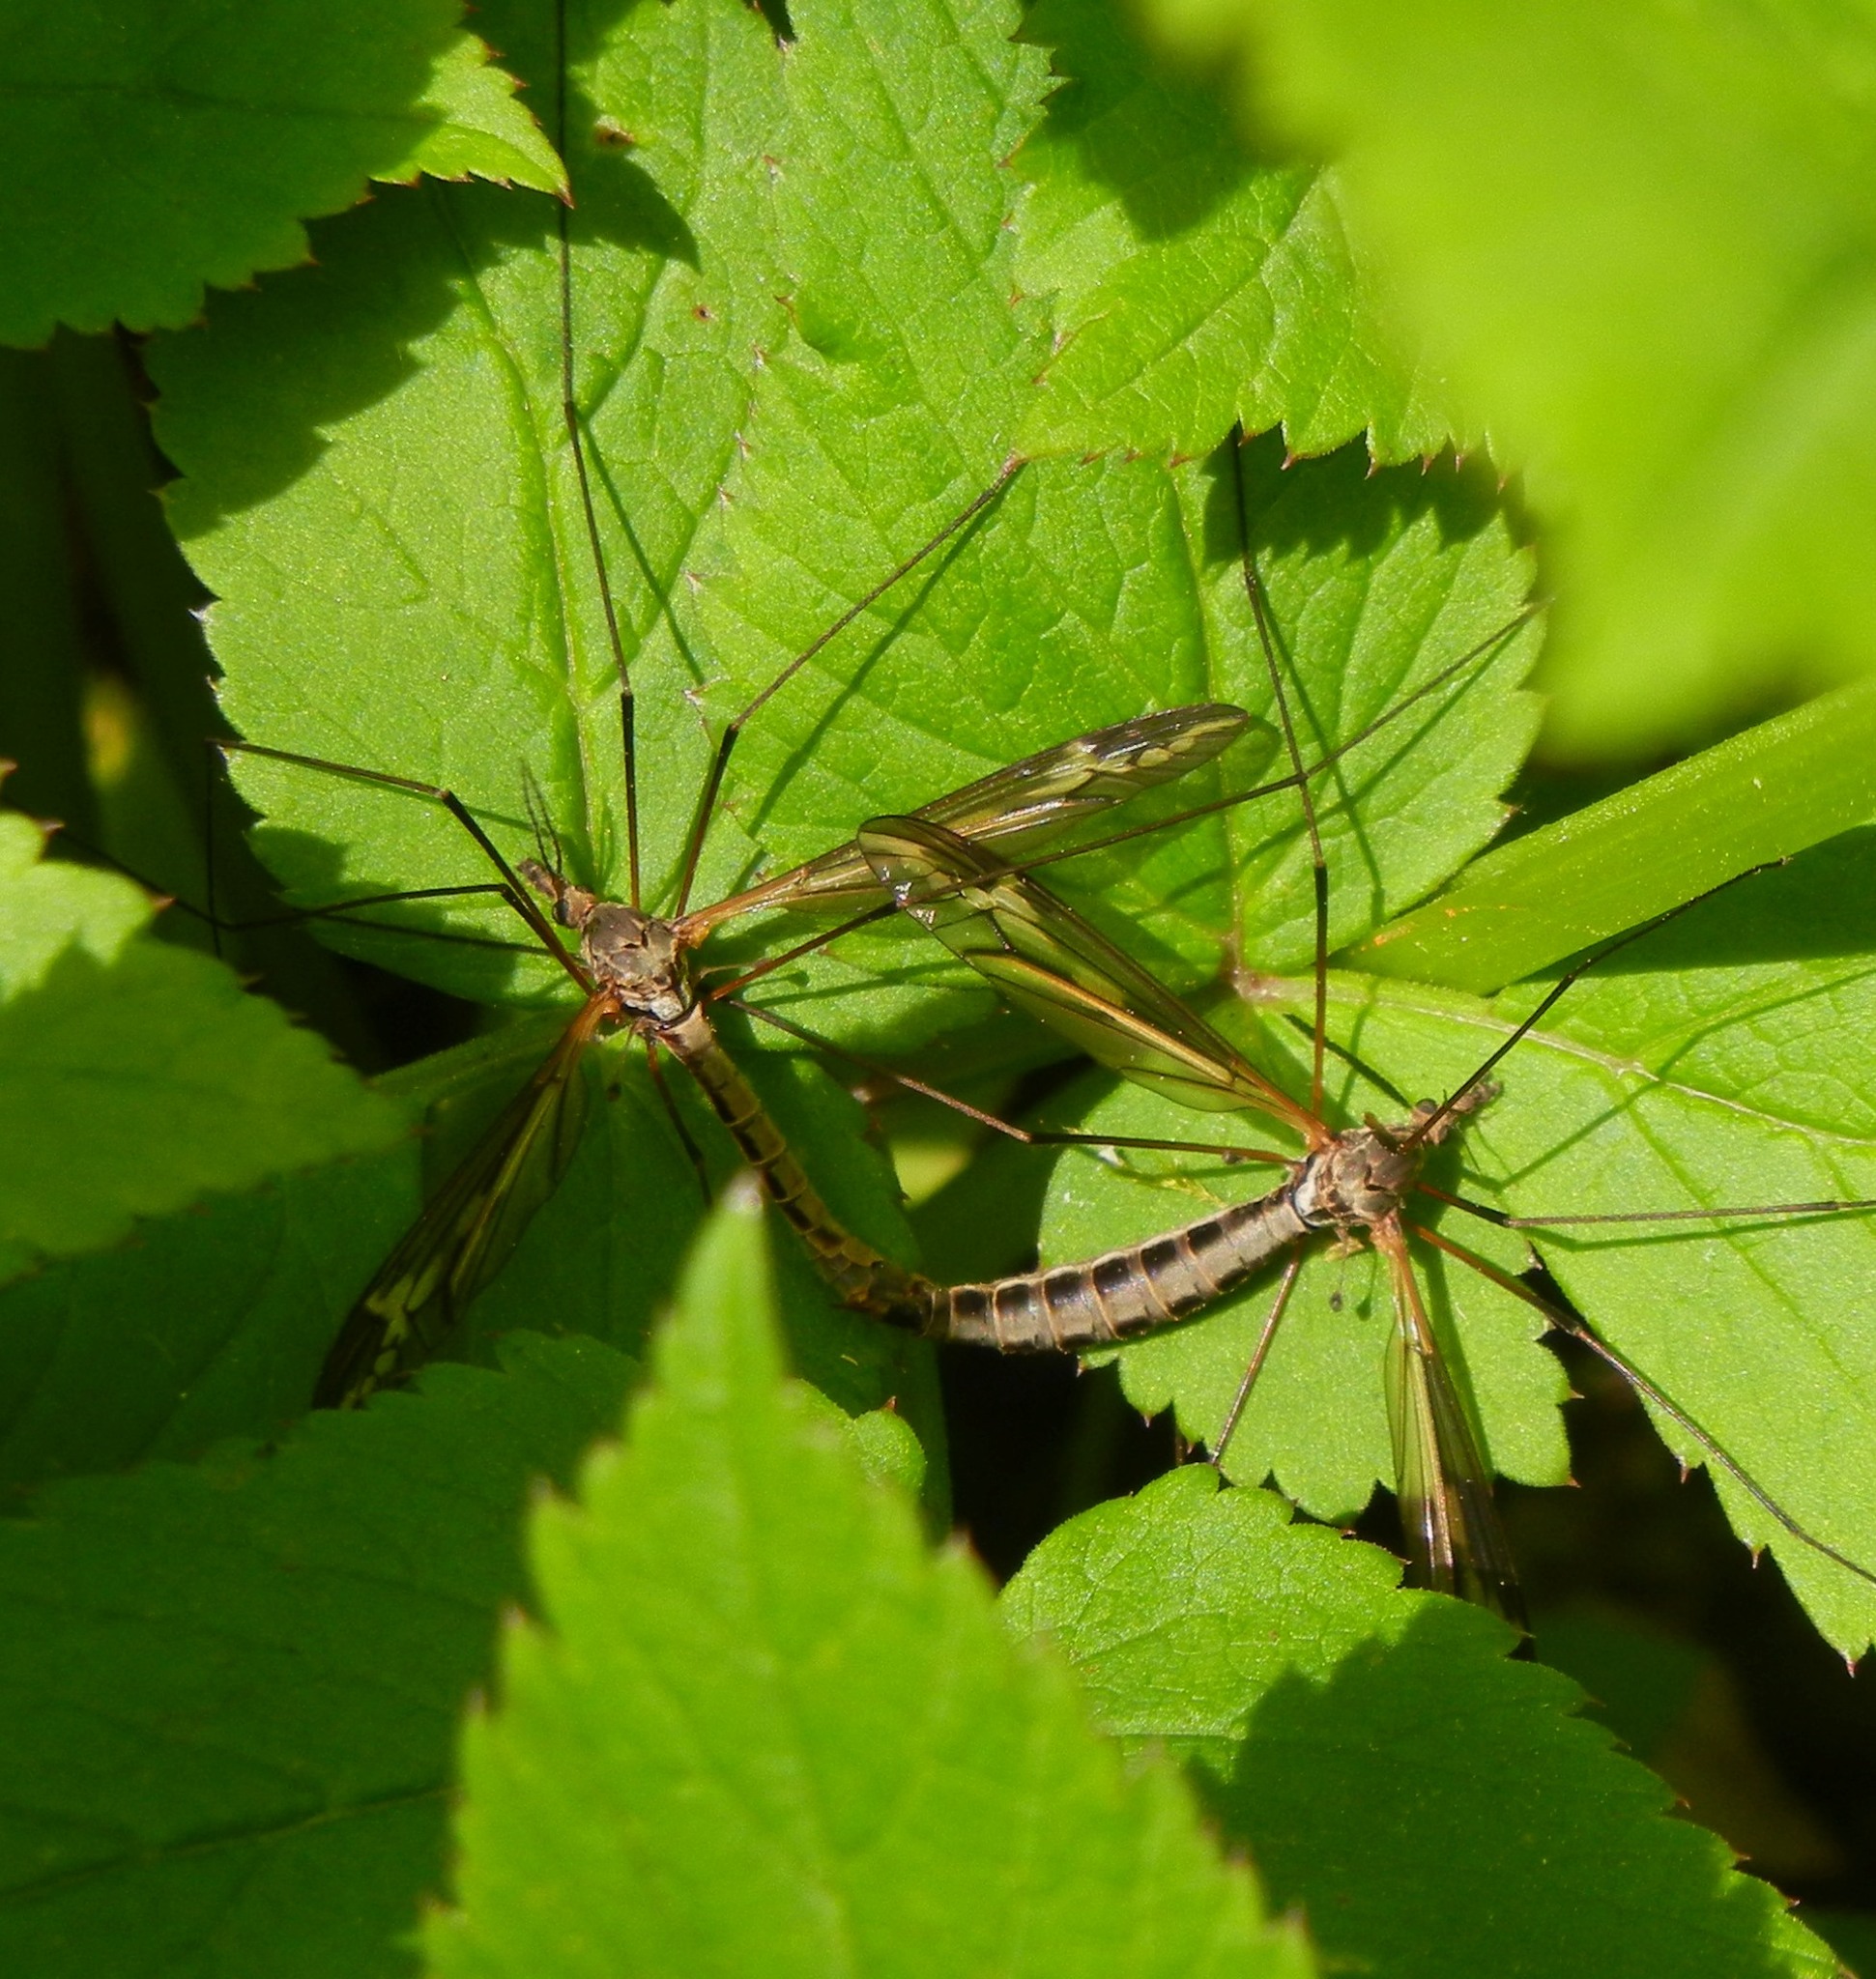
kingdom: Animalia
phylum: Arthropoda
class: Insecta
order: Diptera
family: Tipulidae
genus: Tipula
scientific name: Tipula vittata
